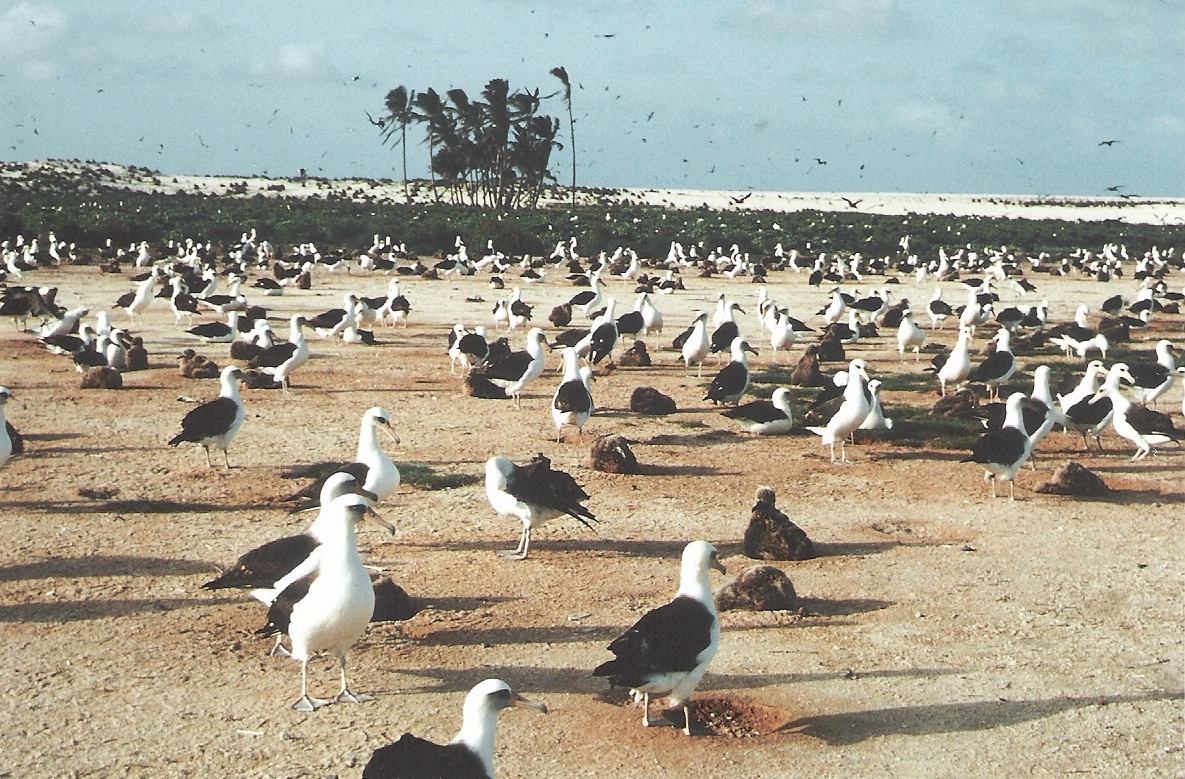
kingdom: Animalia
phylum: Chordata
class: Aves
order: Procellariiformes
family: Diomedeidae
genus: Phoebastria
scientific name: Phoebastria immutabilis
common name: Laysan albatross
